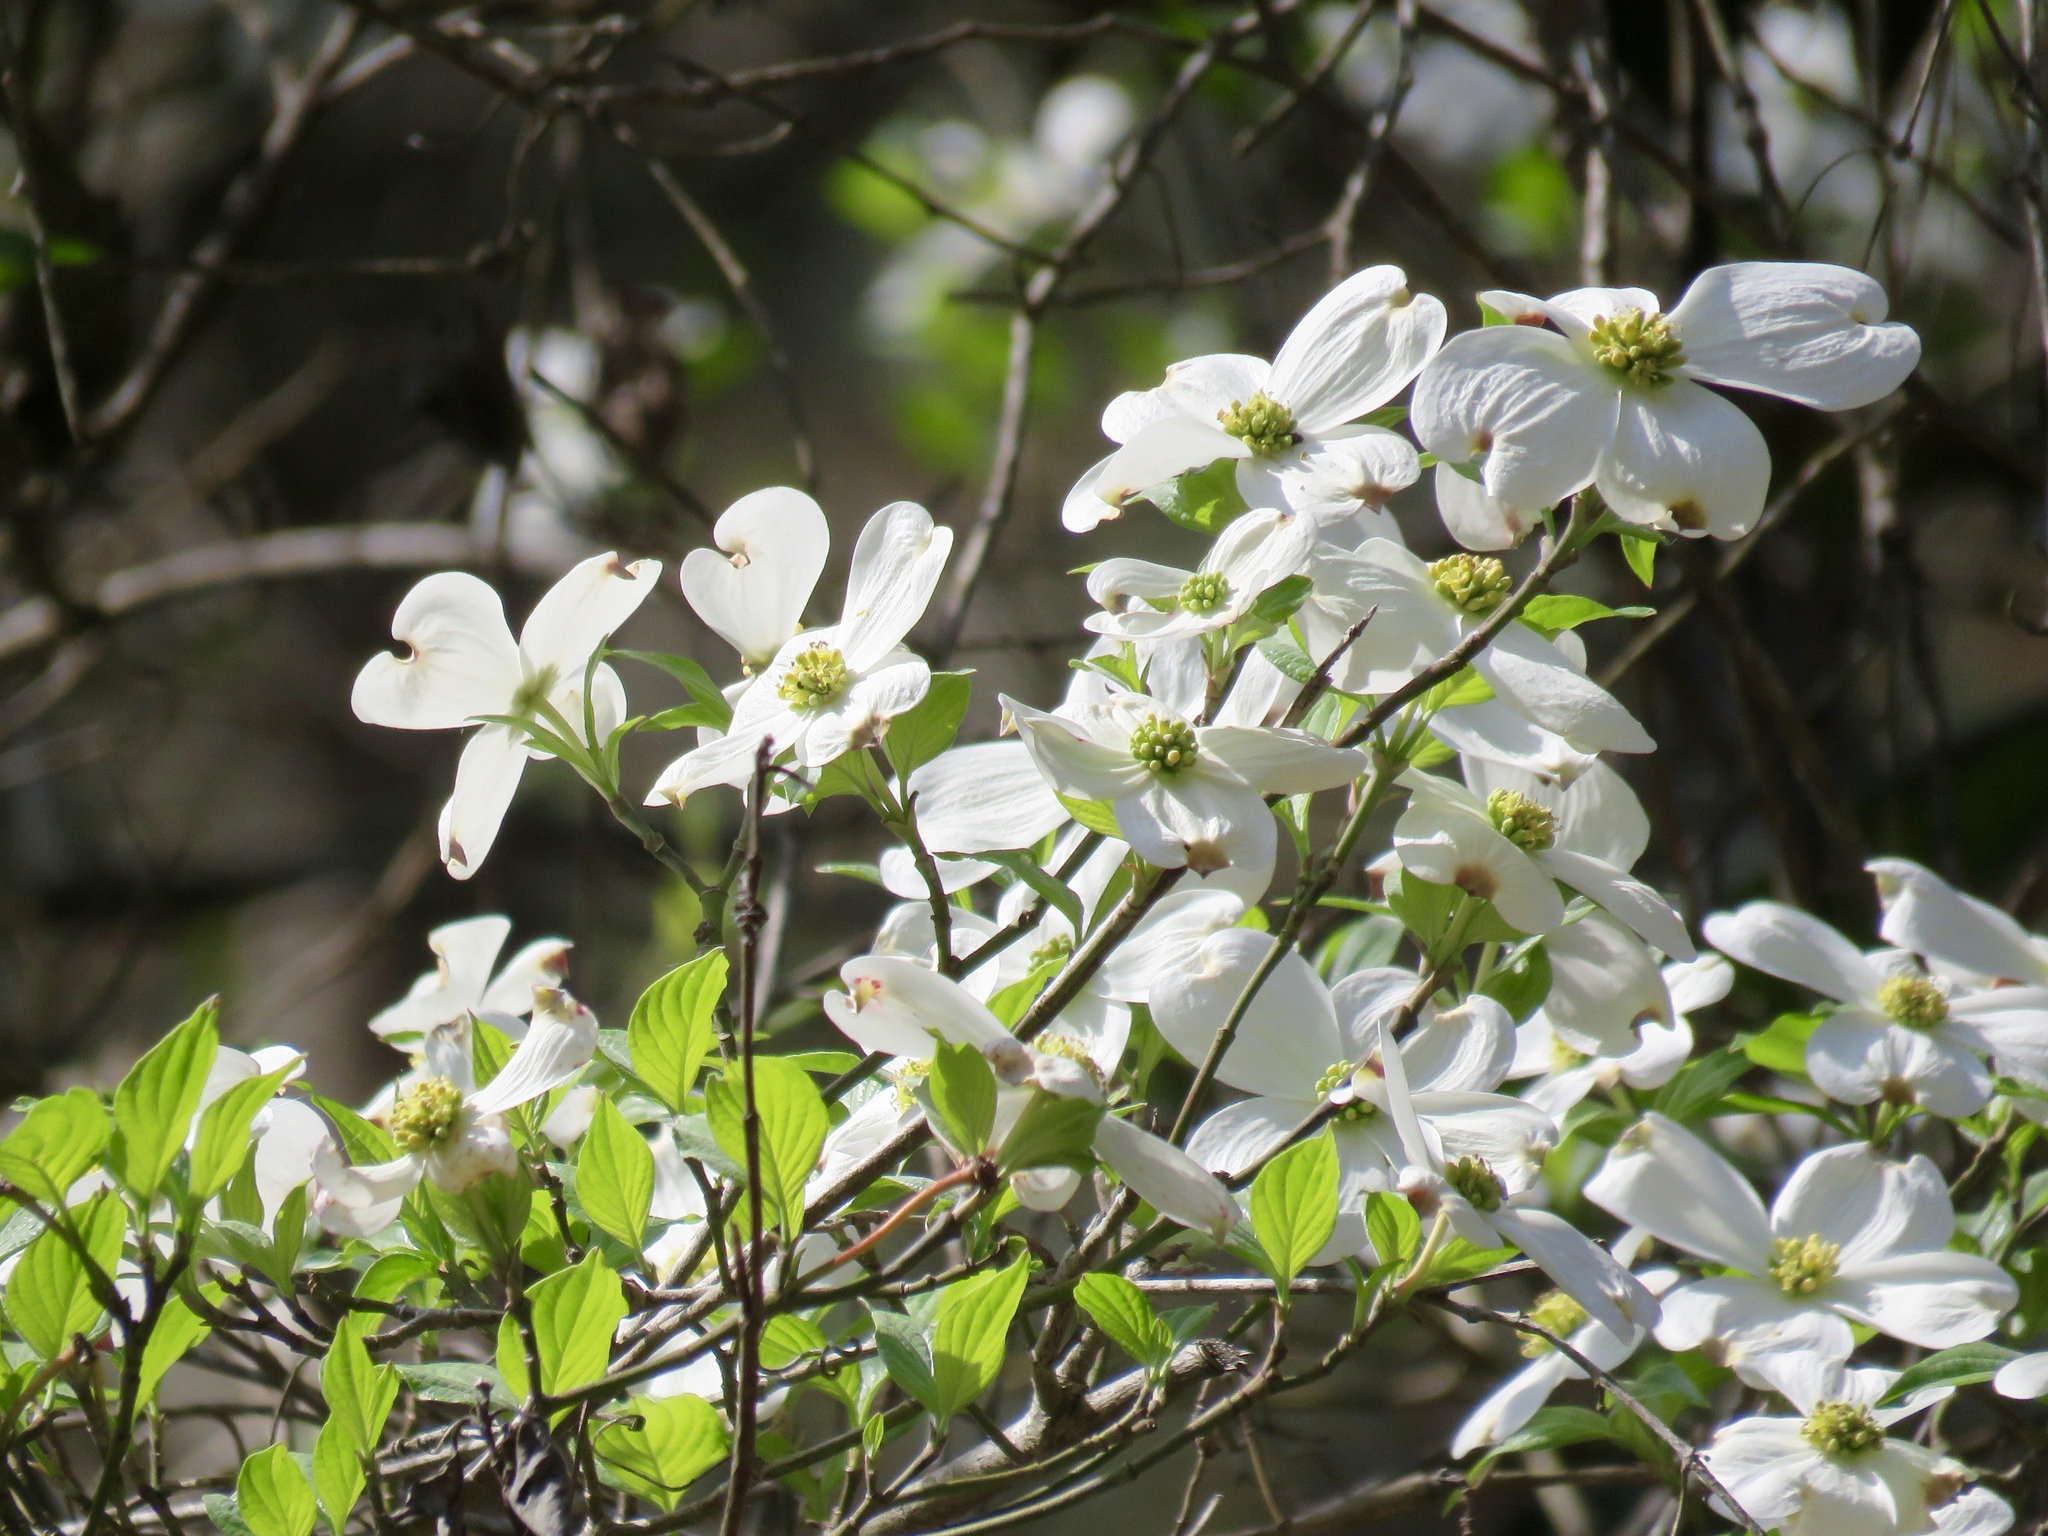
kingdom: Plantae
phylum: Tracheophyta
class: Magnoliopsida
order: Cornales
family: Cornaceae
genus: Cornus
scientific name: Cornus florida
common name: Flowering dogwood
